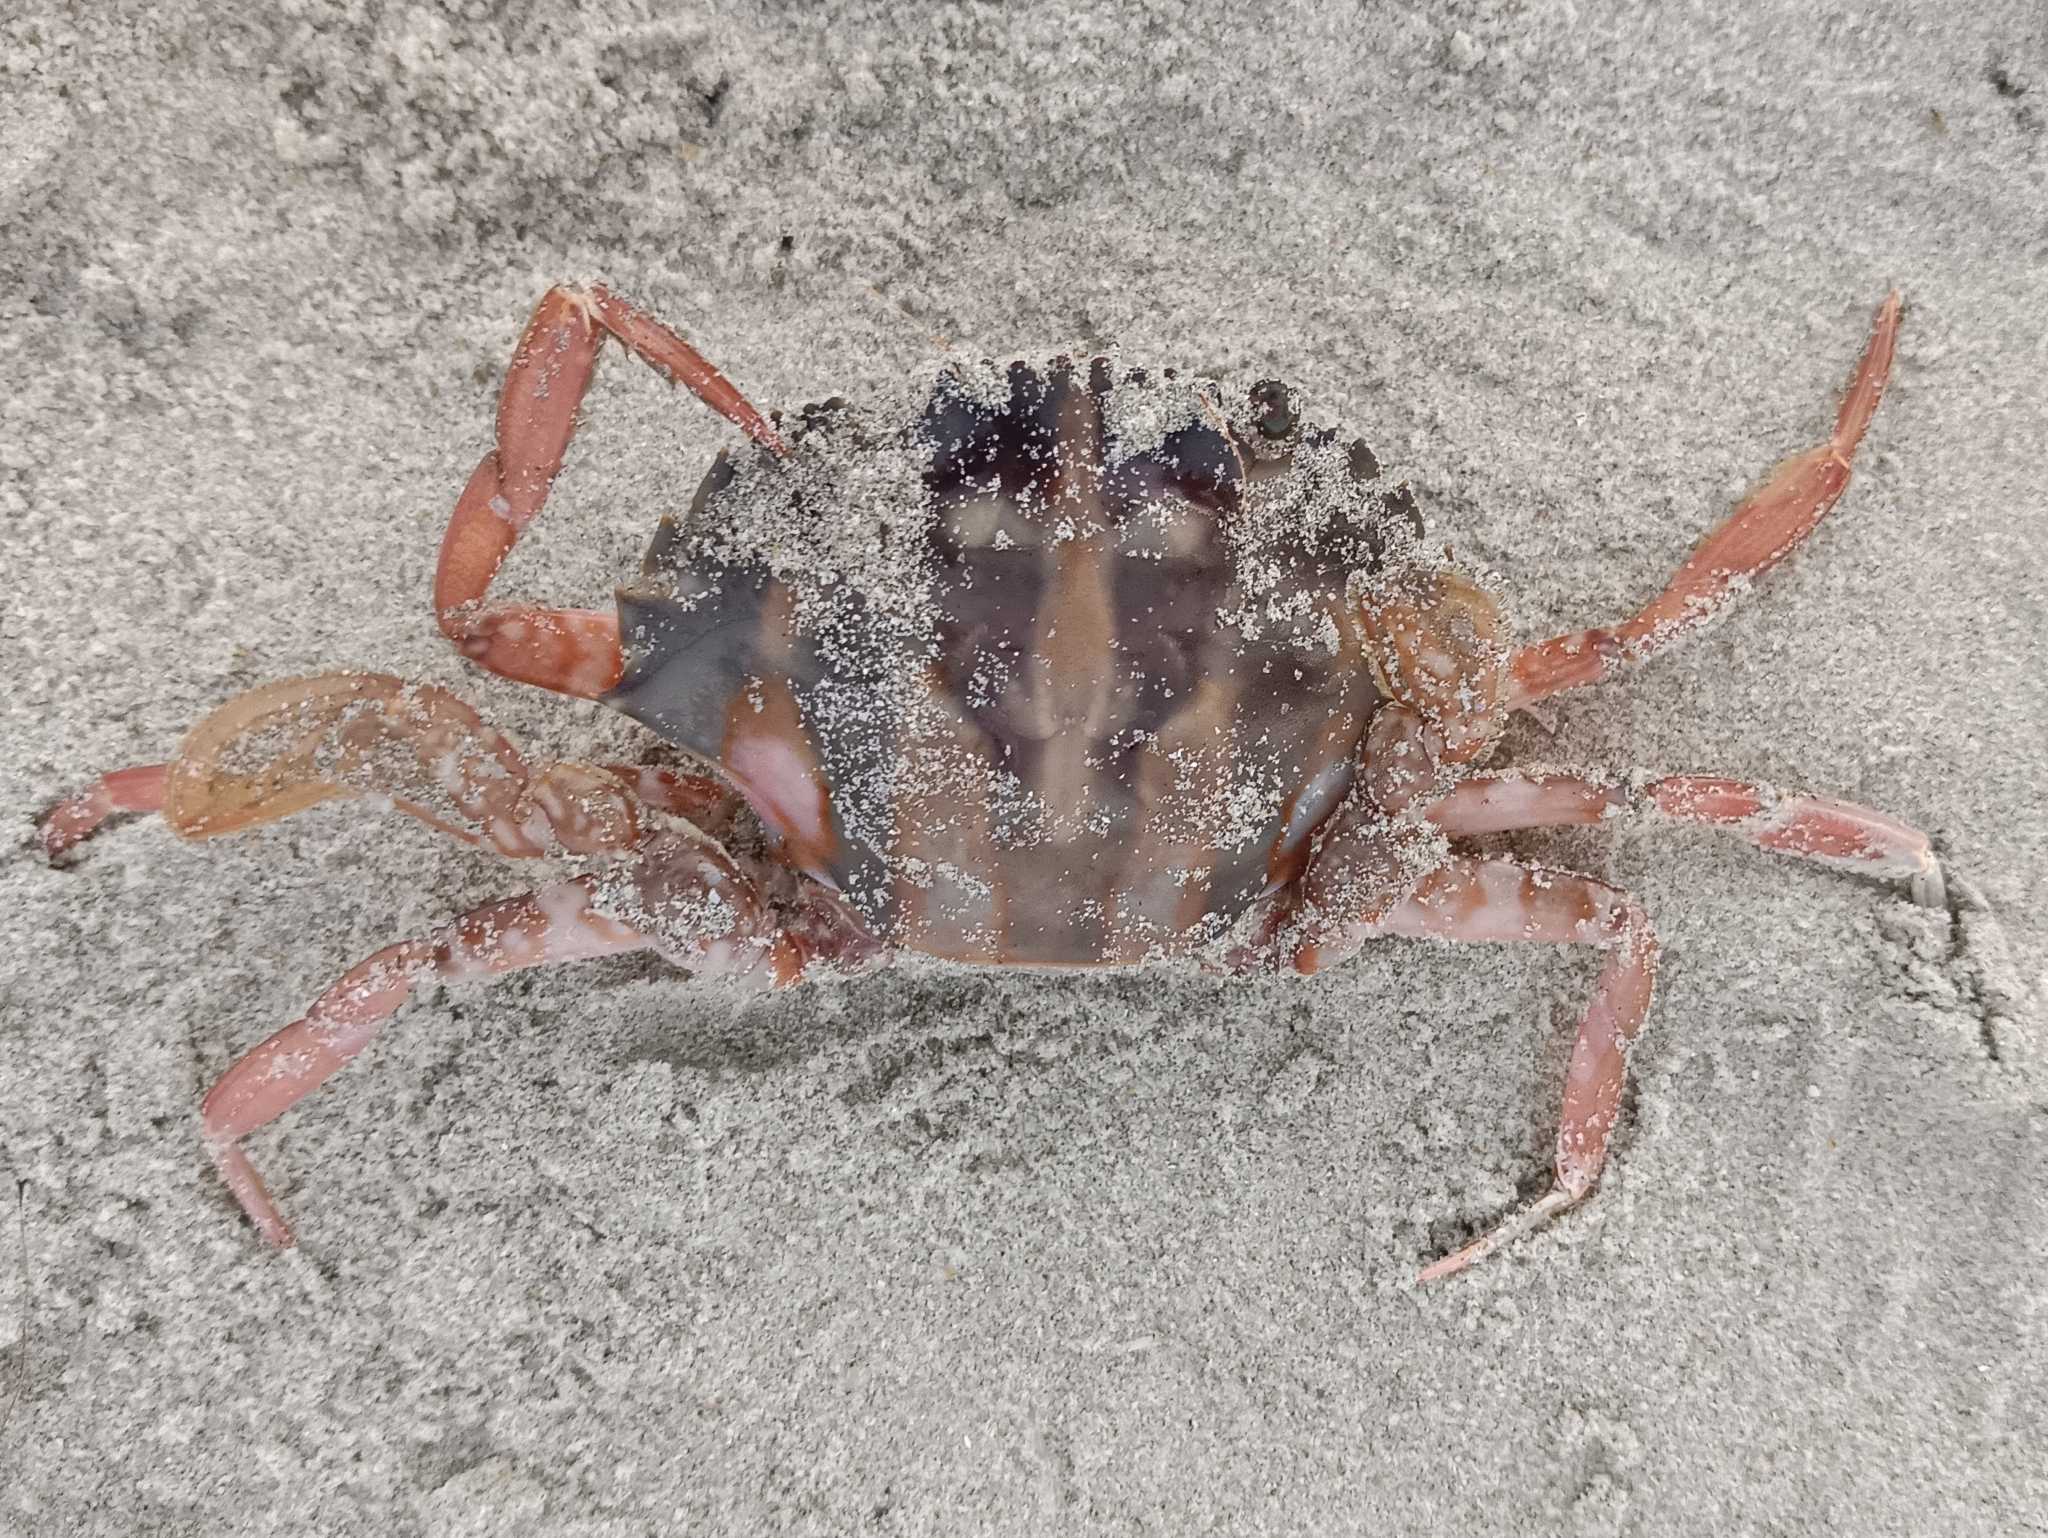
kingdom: Animalia
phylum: Arthropoda
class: Malacostraca
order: Decapoda
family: Portunidae
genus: Charybdis
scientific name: Charybdis feriata
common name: Striped swimming crab
